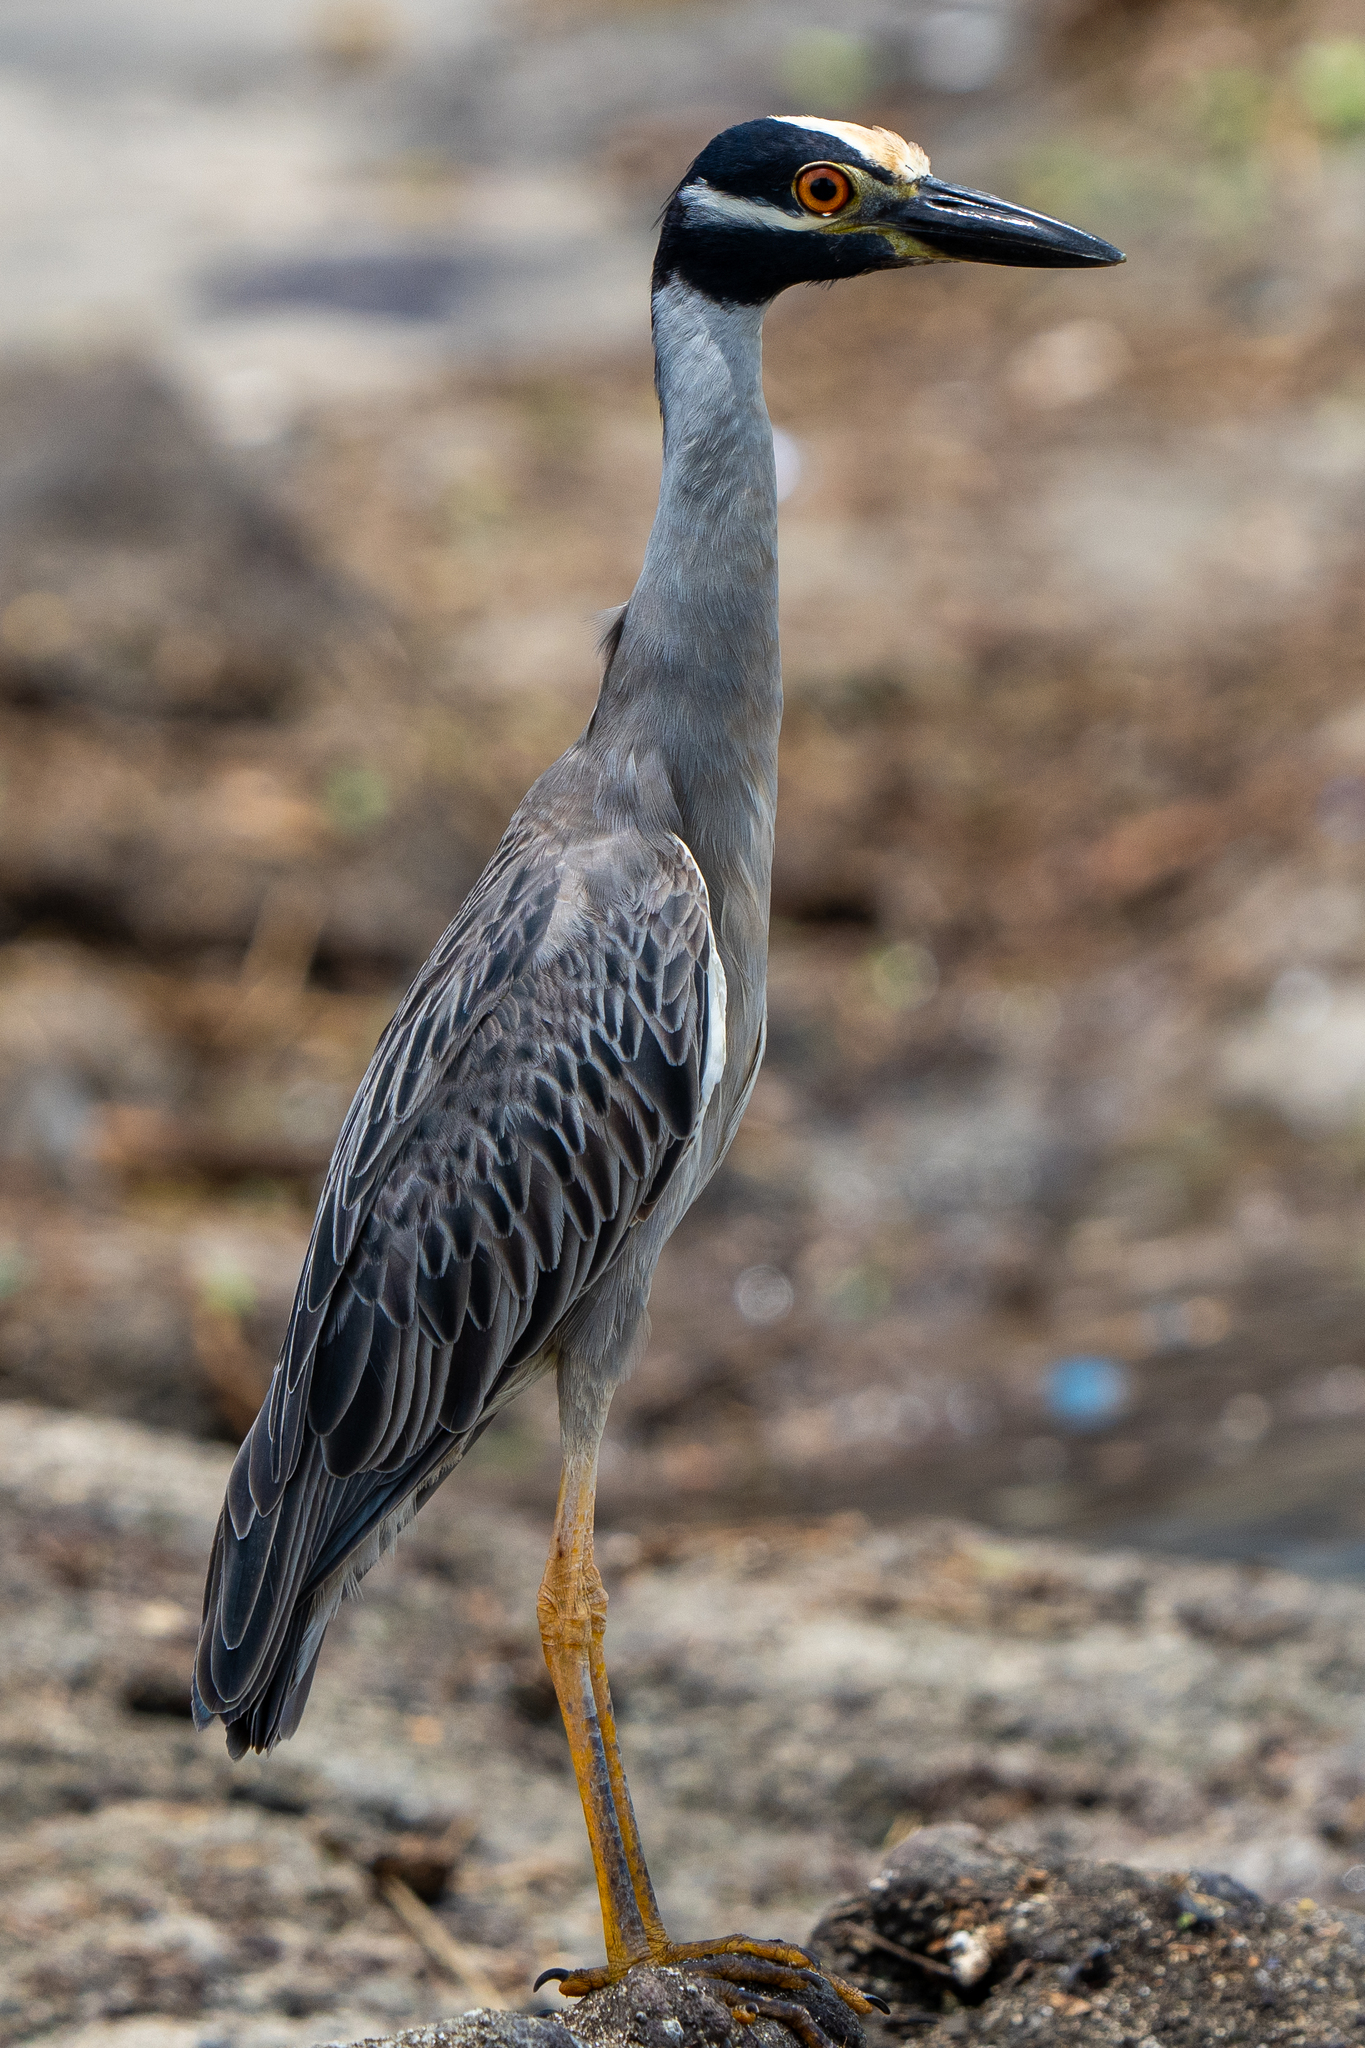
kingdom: Animalia
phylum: Chordata
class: Aves
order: Pelecaniformes
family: Ardeidae
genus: Nyctanassa
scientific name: Nyctanassa violacea
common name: Yellow-crowned night heron
